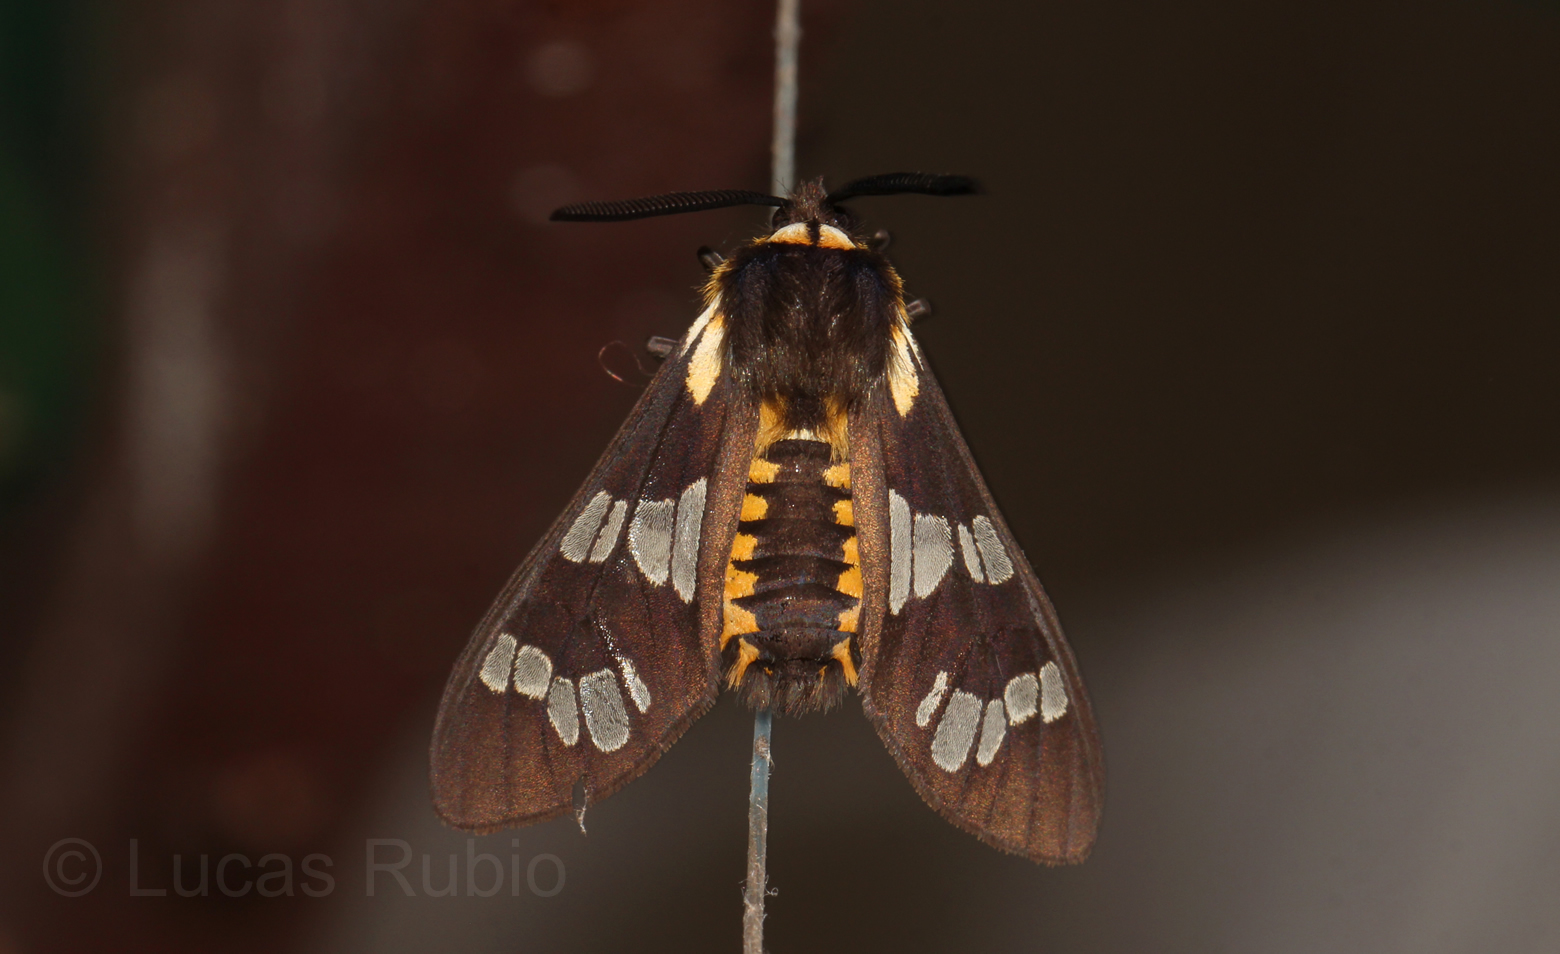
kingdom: Animalia
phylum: Arthropoda
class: Insecta
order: Lepidoptera
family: Erebidae
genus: Eurata
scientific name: Eurata
